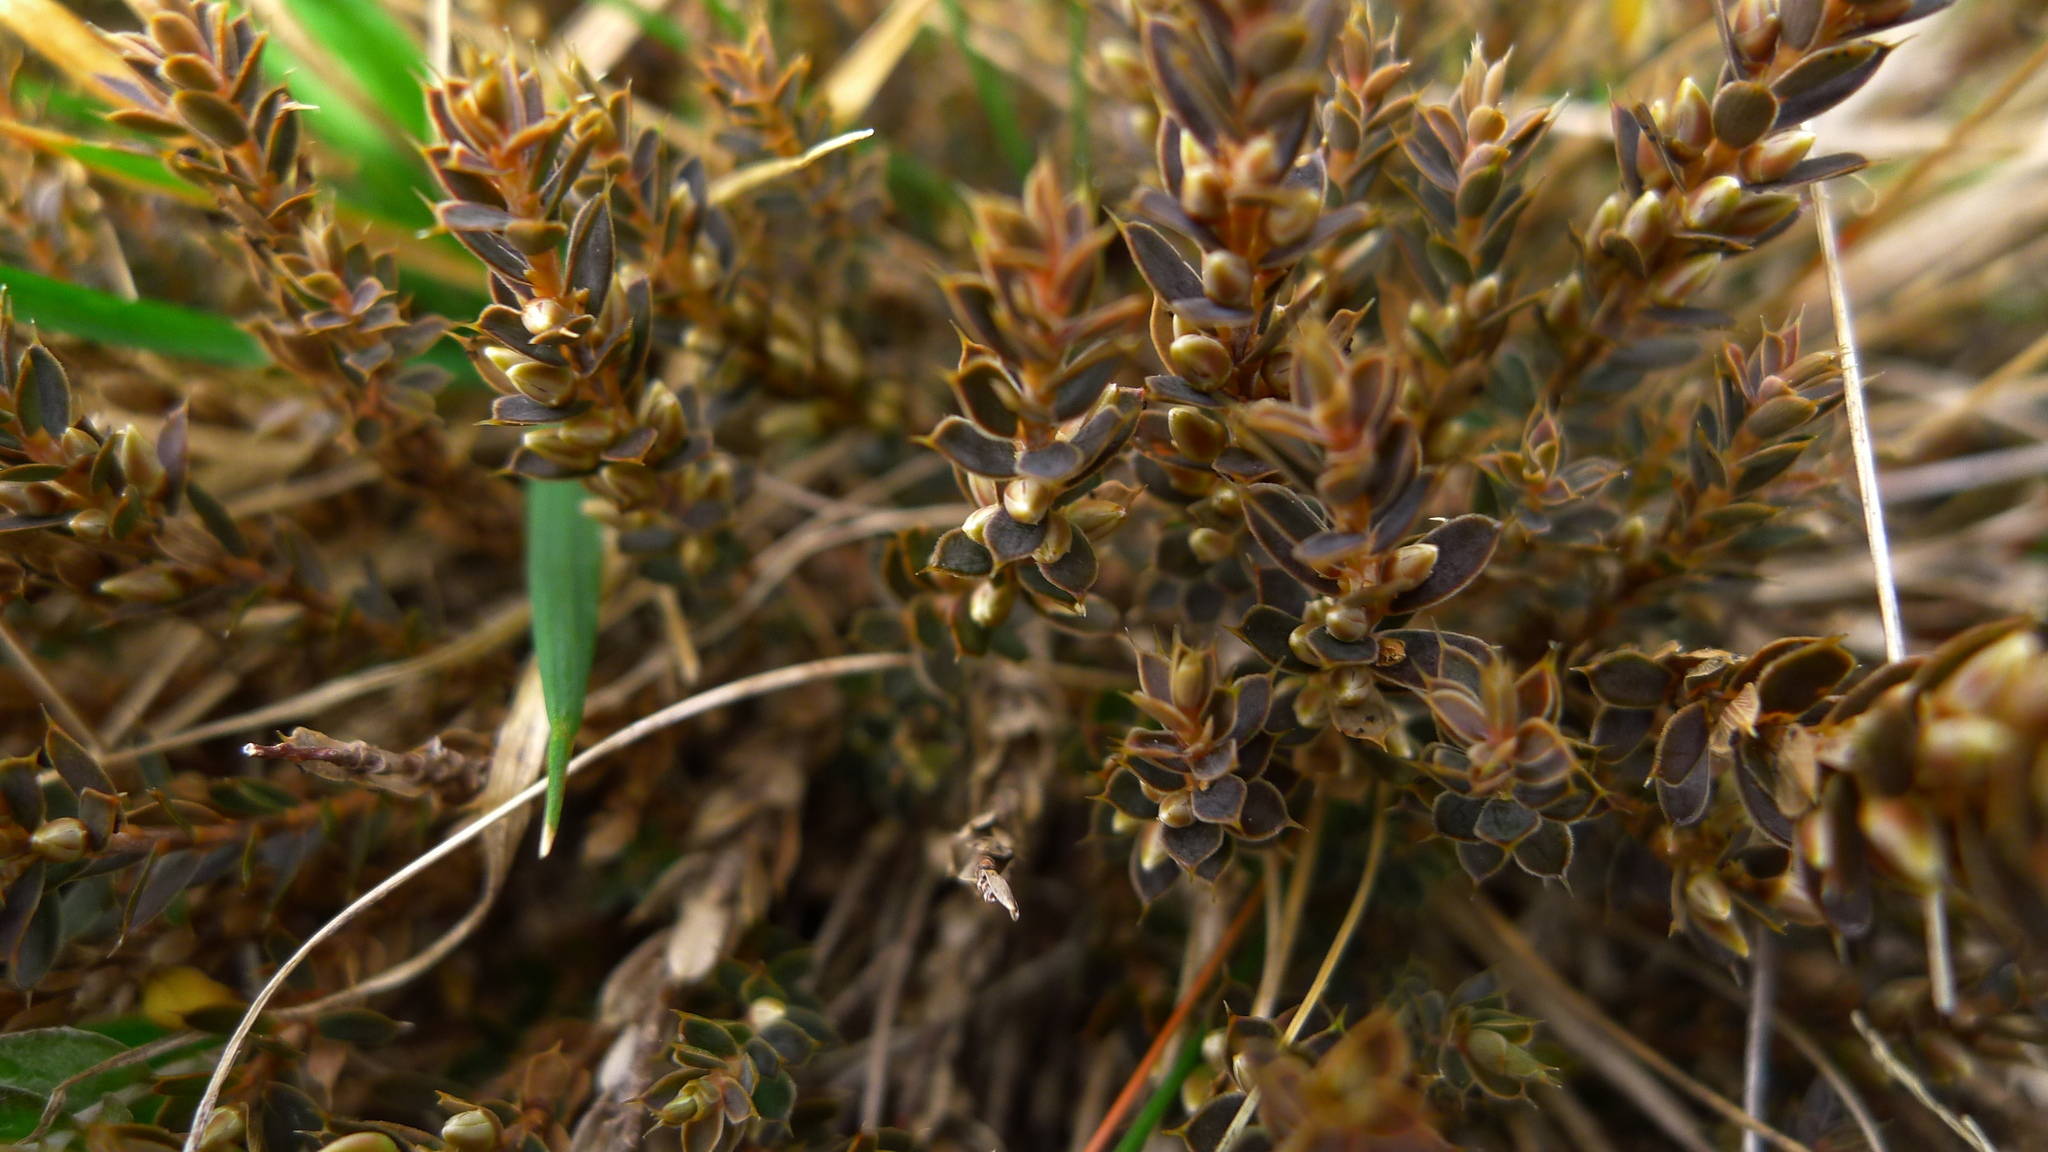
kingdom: Plantae
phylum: Tracheophyta
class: Magnoliopsida
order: Ericales
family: Ericaceae
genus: Styphelia
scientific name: Styphelia nesophila
